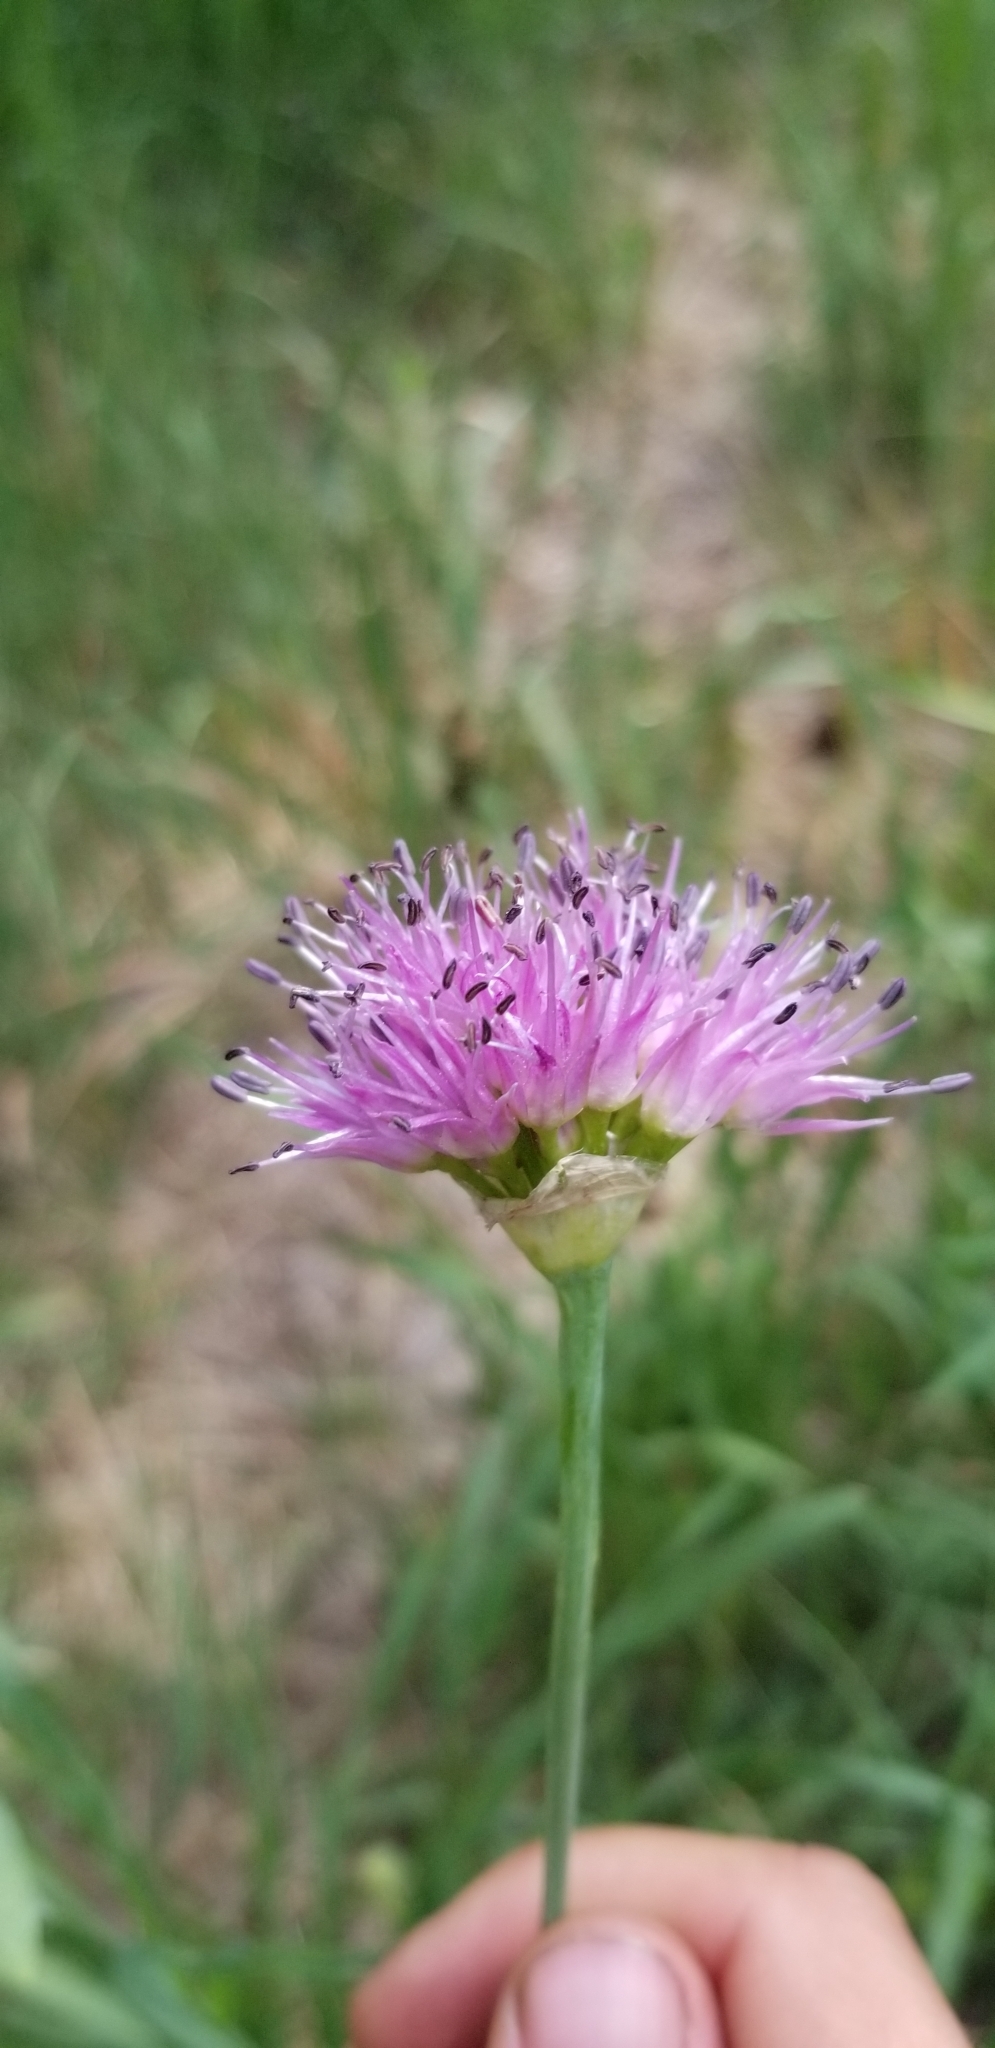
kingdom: Plantae
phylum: Tracheophyta
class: Liliopsida
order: Asparagales
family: Amaryllidaceae
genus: Allium
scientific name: Allium validum
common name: Pacific mountain onion
